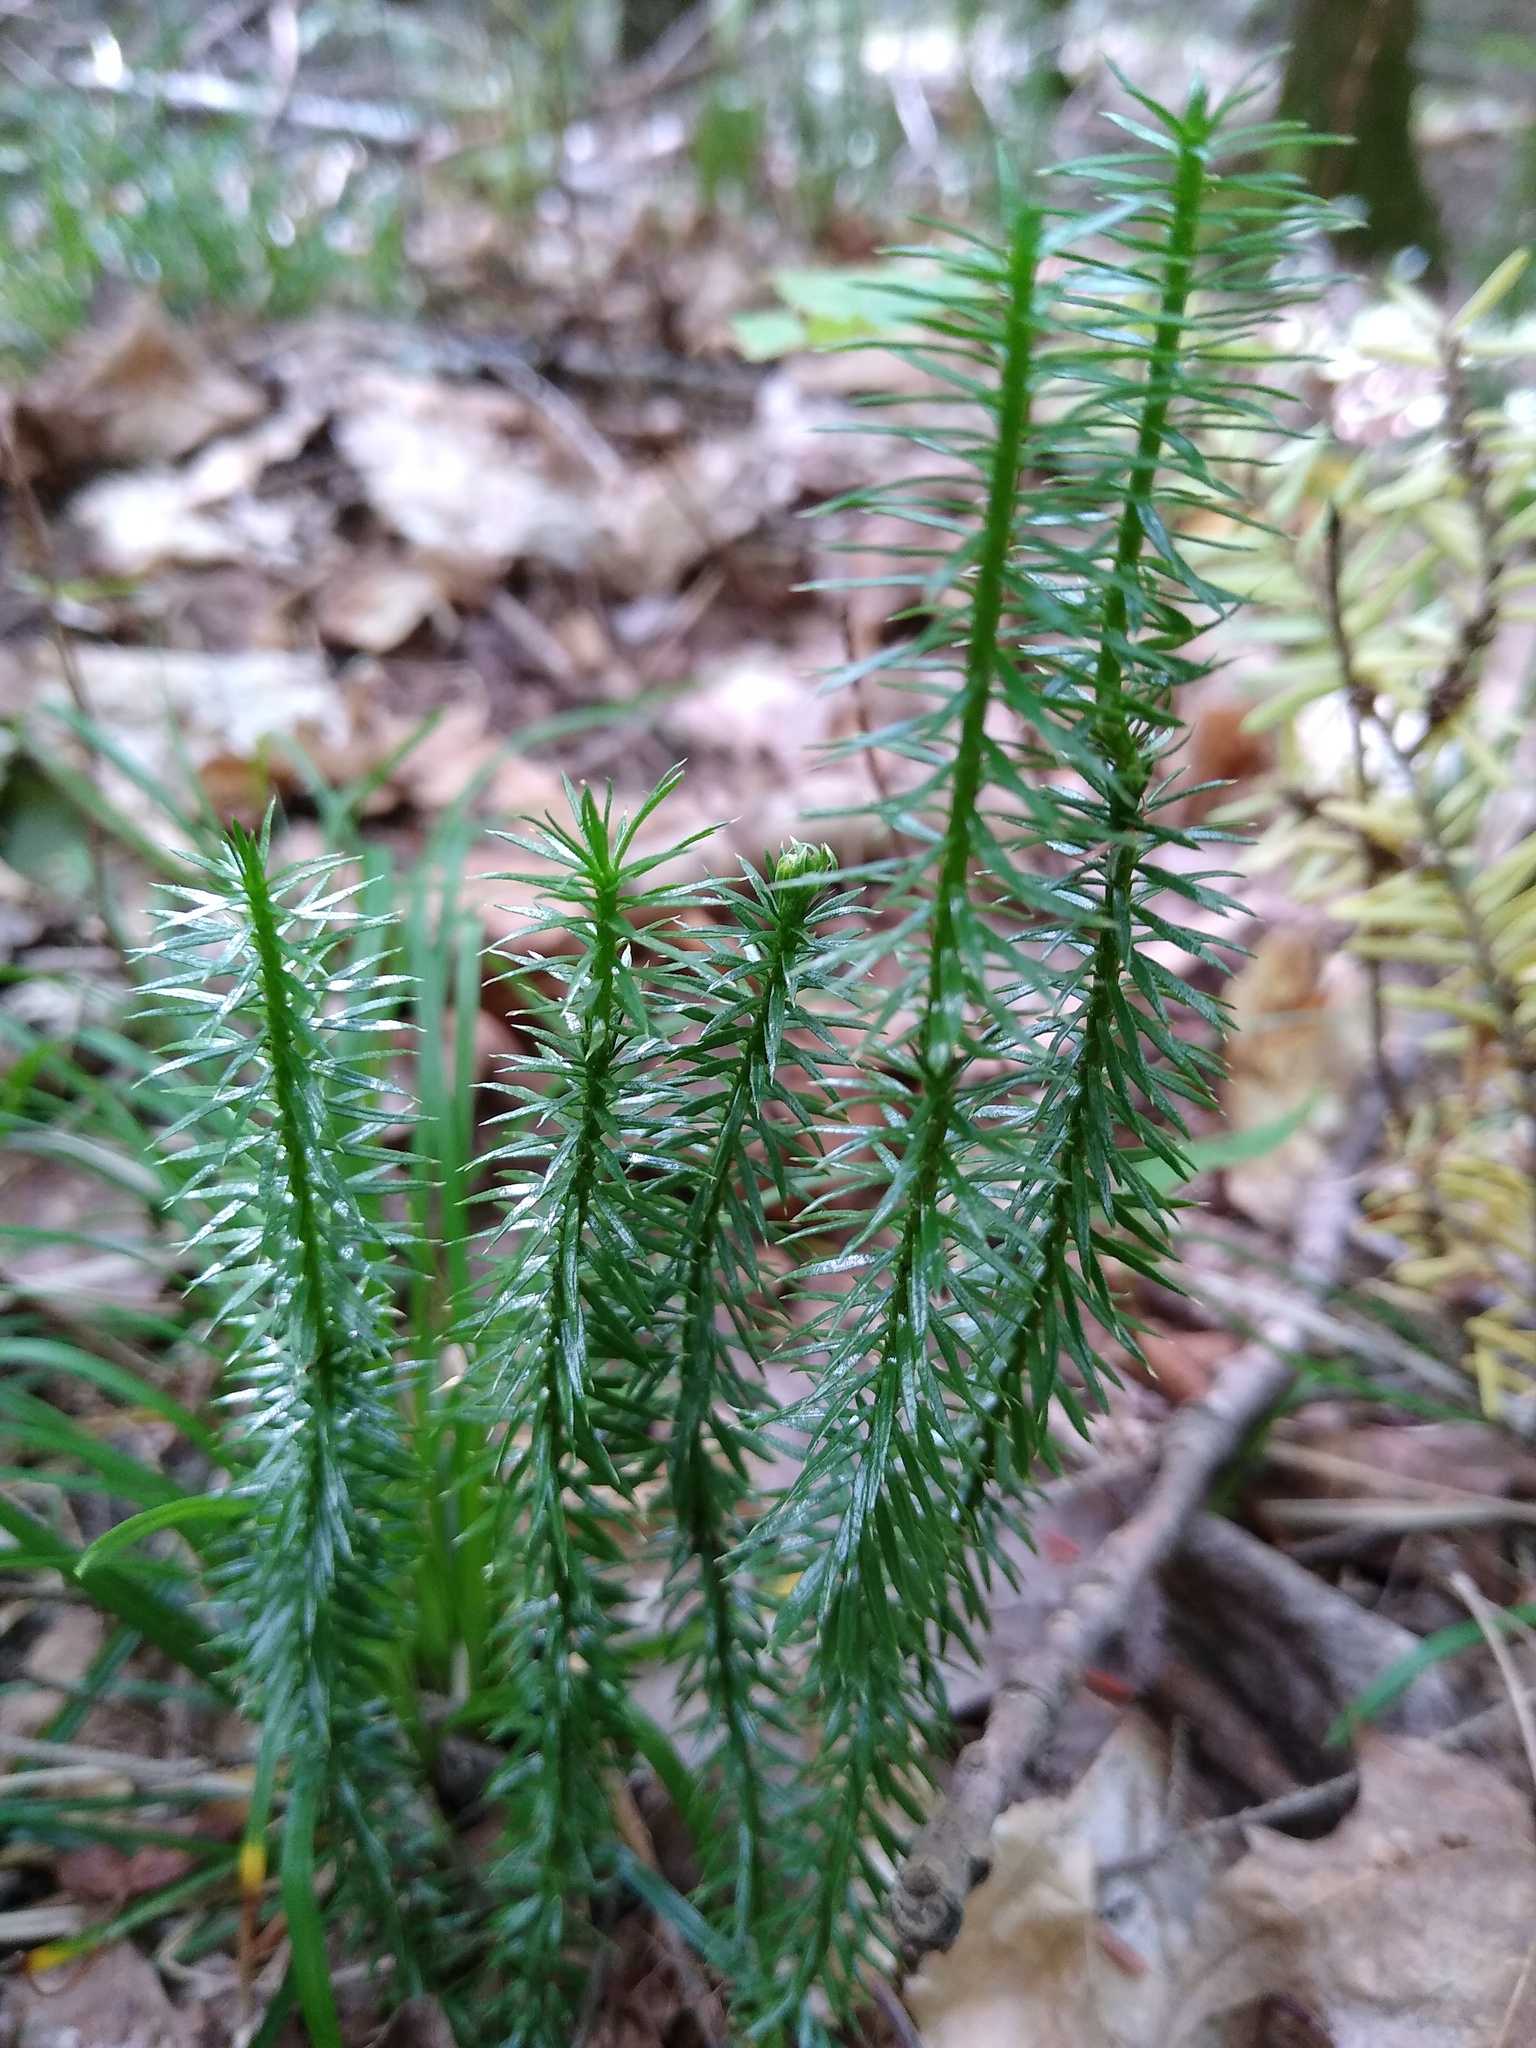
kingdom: Plantae
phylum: Tracheophyta
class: Lycopodiopsida
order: Lycopodiales
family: Lycopodiaceae
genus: Spinulum
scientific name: Spinulum annotinum
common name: Interrupted club-moss
